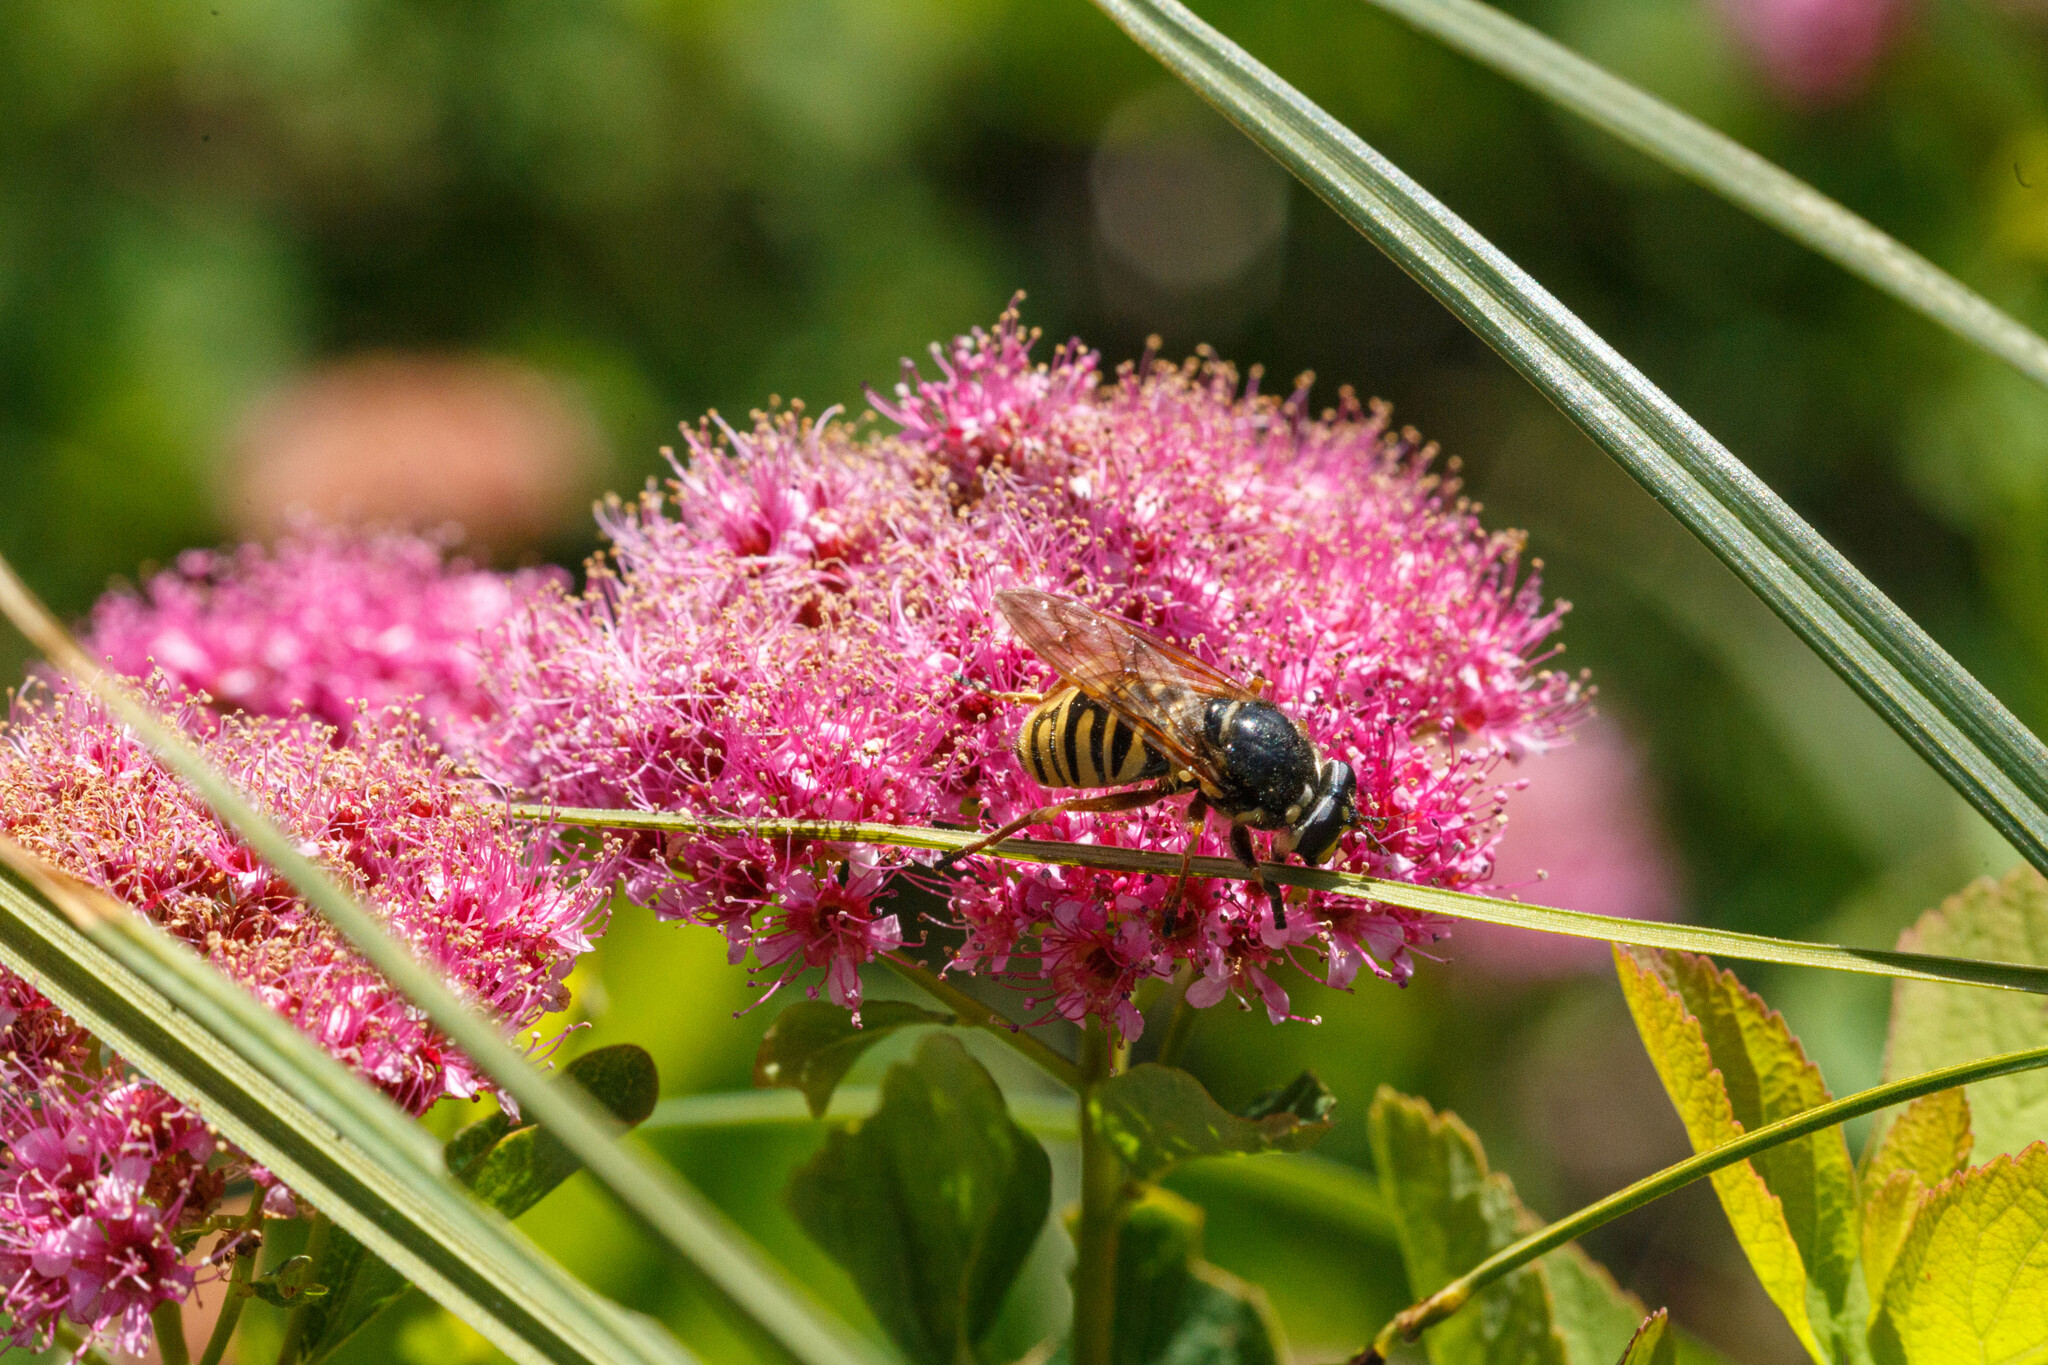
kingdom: Animalia
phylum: Arthropoda
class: Insecta
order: Diptera
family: Syrphidae
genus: Sphecomyia
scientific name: Sphecomyia pattonii
